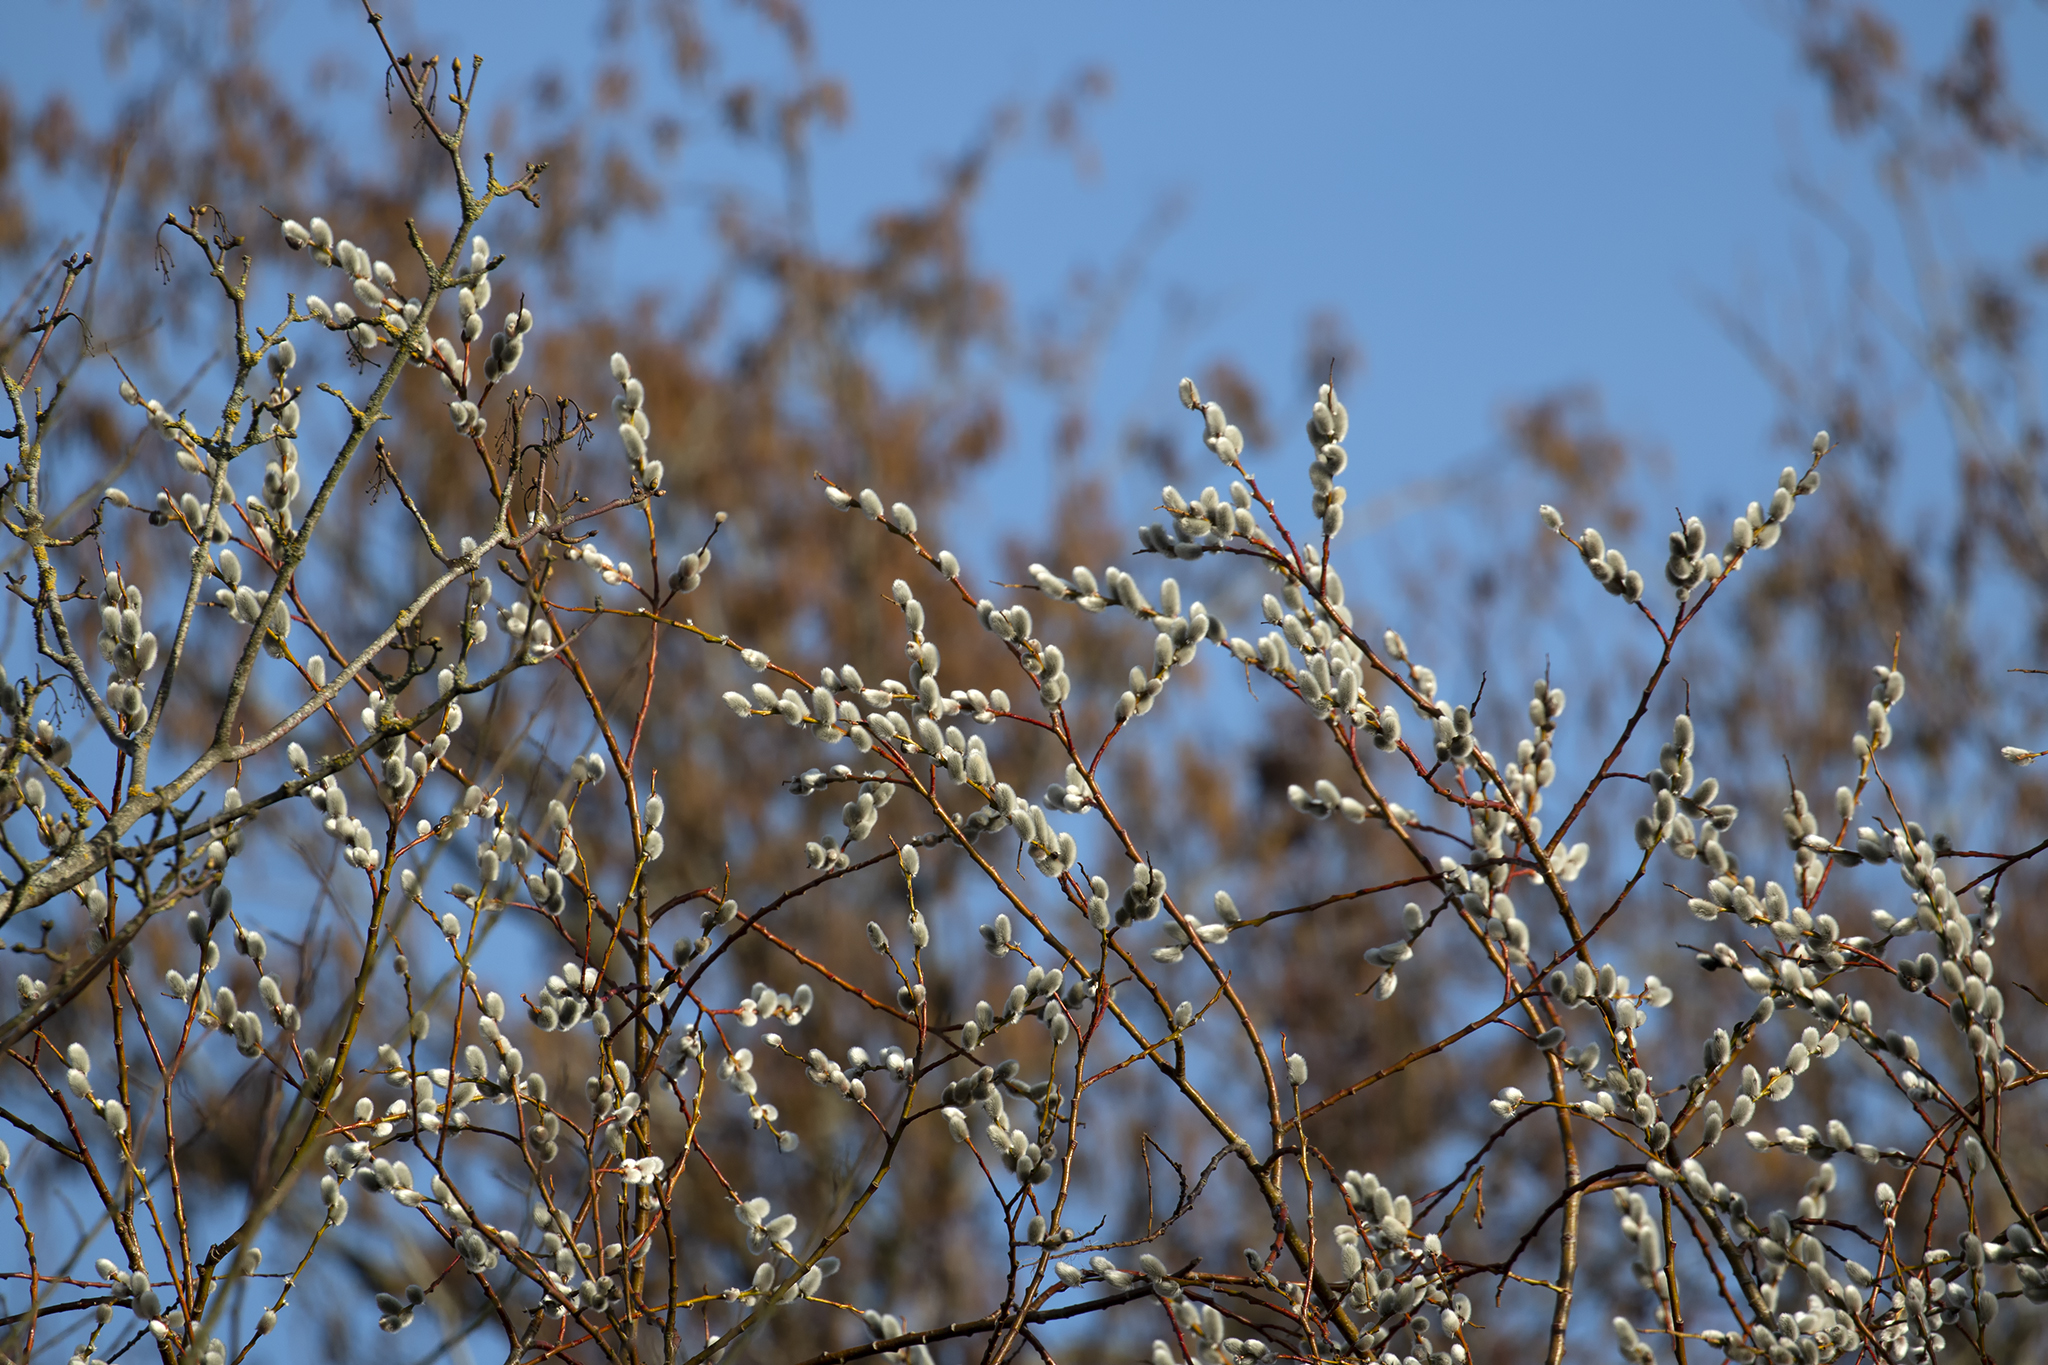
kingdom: Plantae
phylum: Tracheophyta
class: Magnoliopsida
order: Malpighiales
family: Salicaceae
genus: Salix
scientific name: Salix daphnoides
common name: European violet-willow
